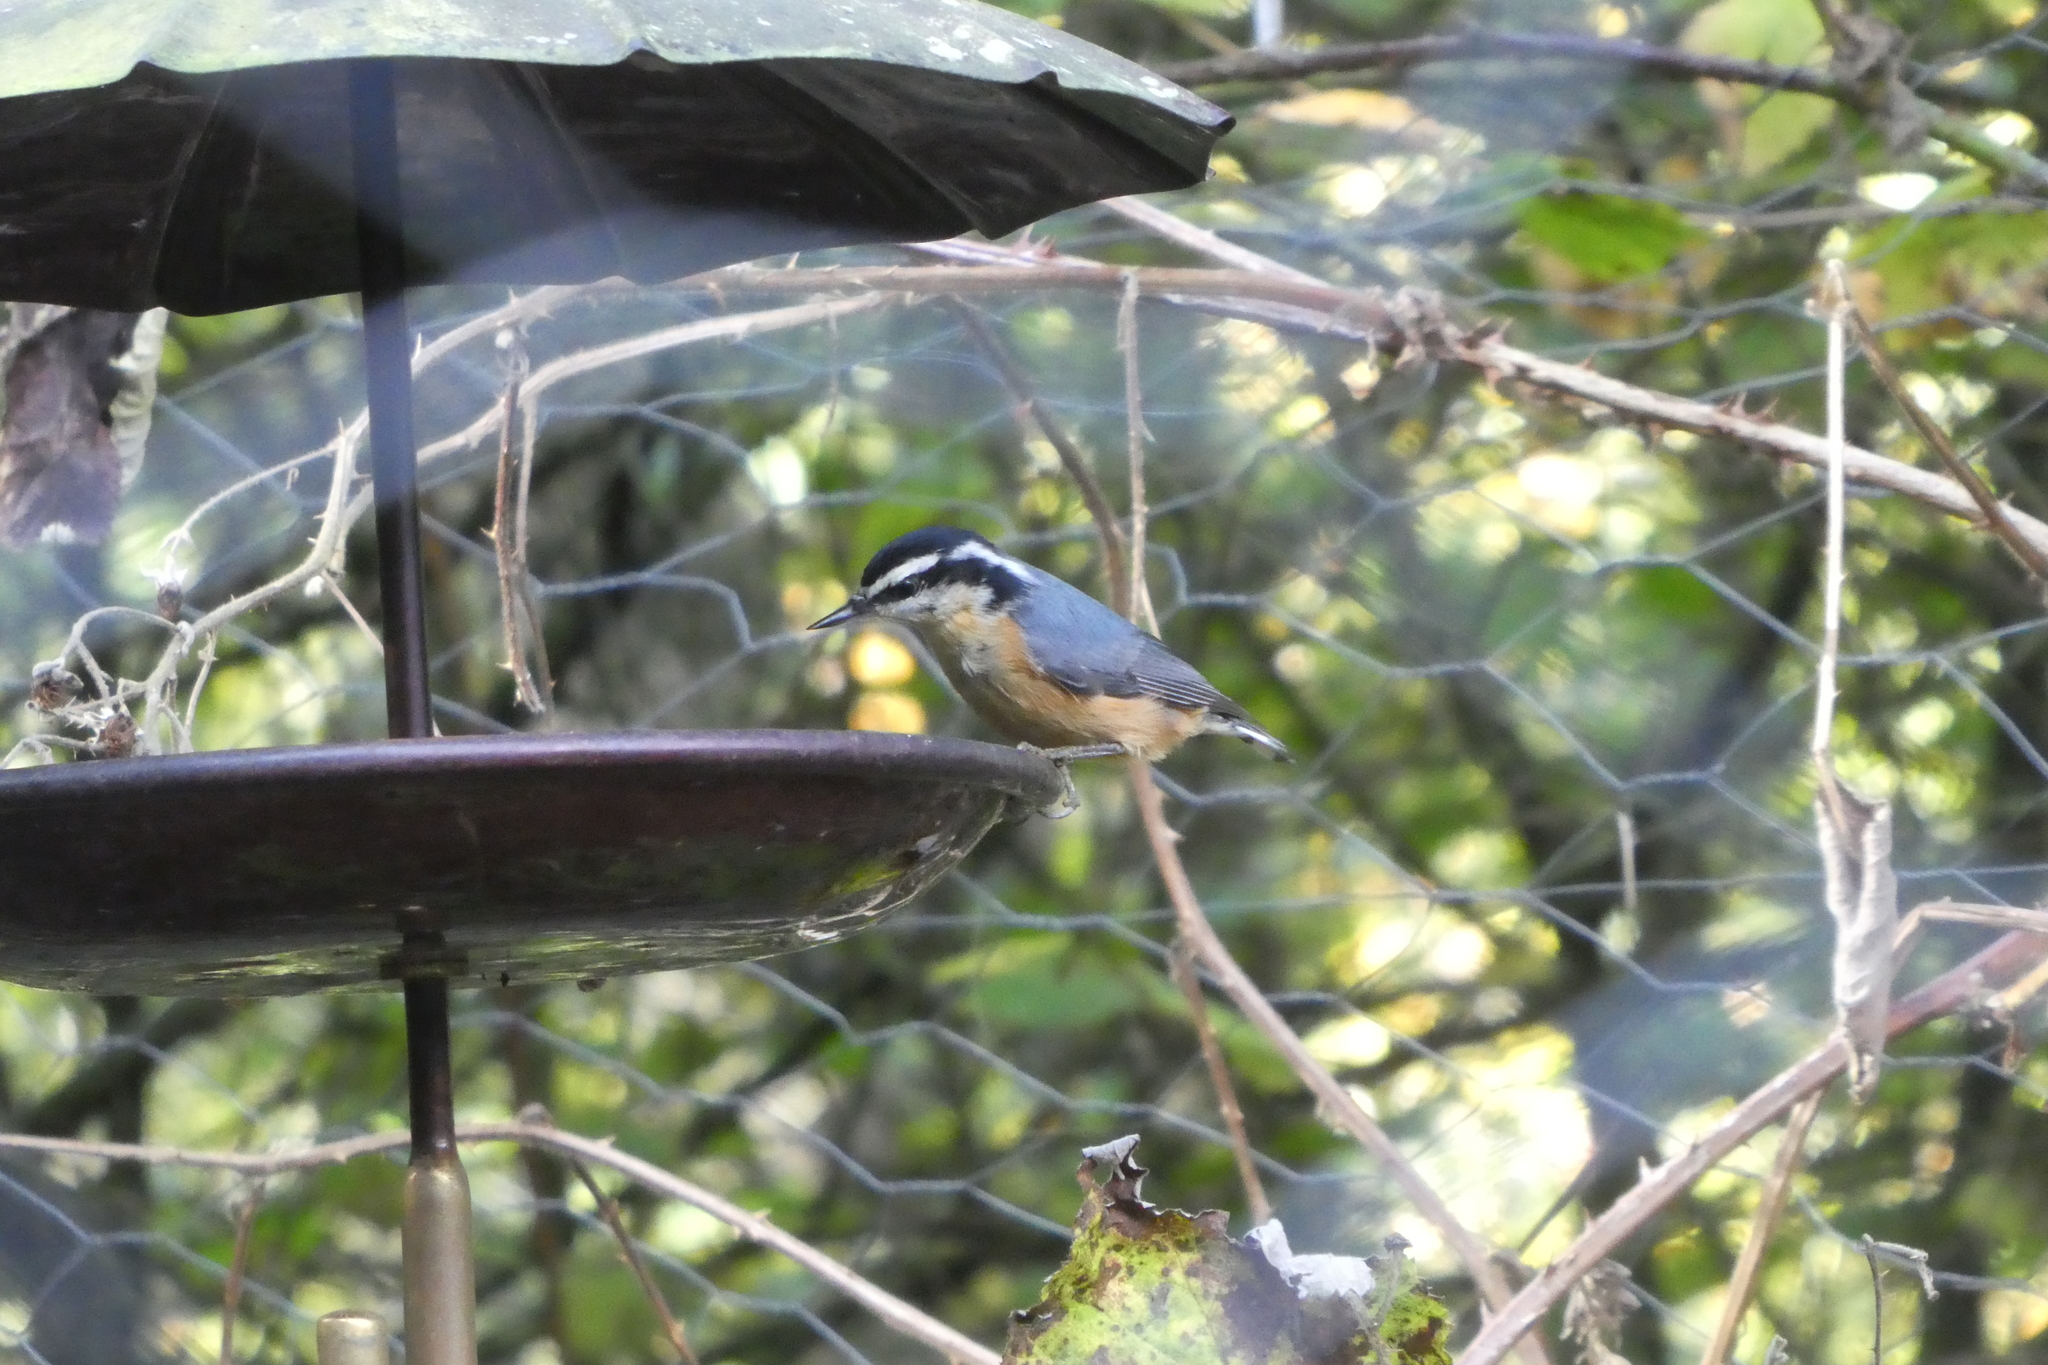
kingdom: Animalia
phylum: Chordata
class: Aves
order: Passeriformes
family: Sittidae
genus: Sitta
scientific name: Sitta canadensis
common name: Red-breasted nuthatch
